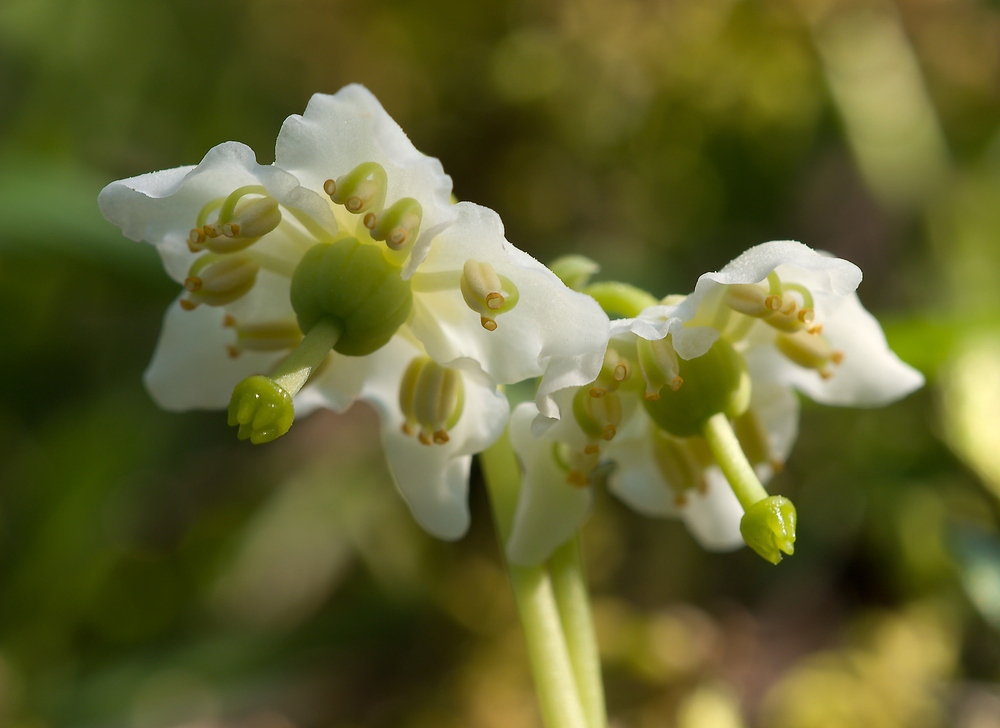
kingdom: Plantae
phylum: Tracheophyta
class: Magnoliopsida
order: Ericales
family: Ericaceae
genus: Moneses
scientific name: Moneses uniflora
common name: One-flowered wintergreen
